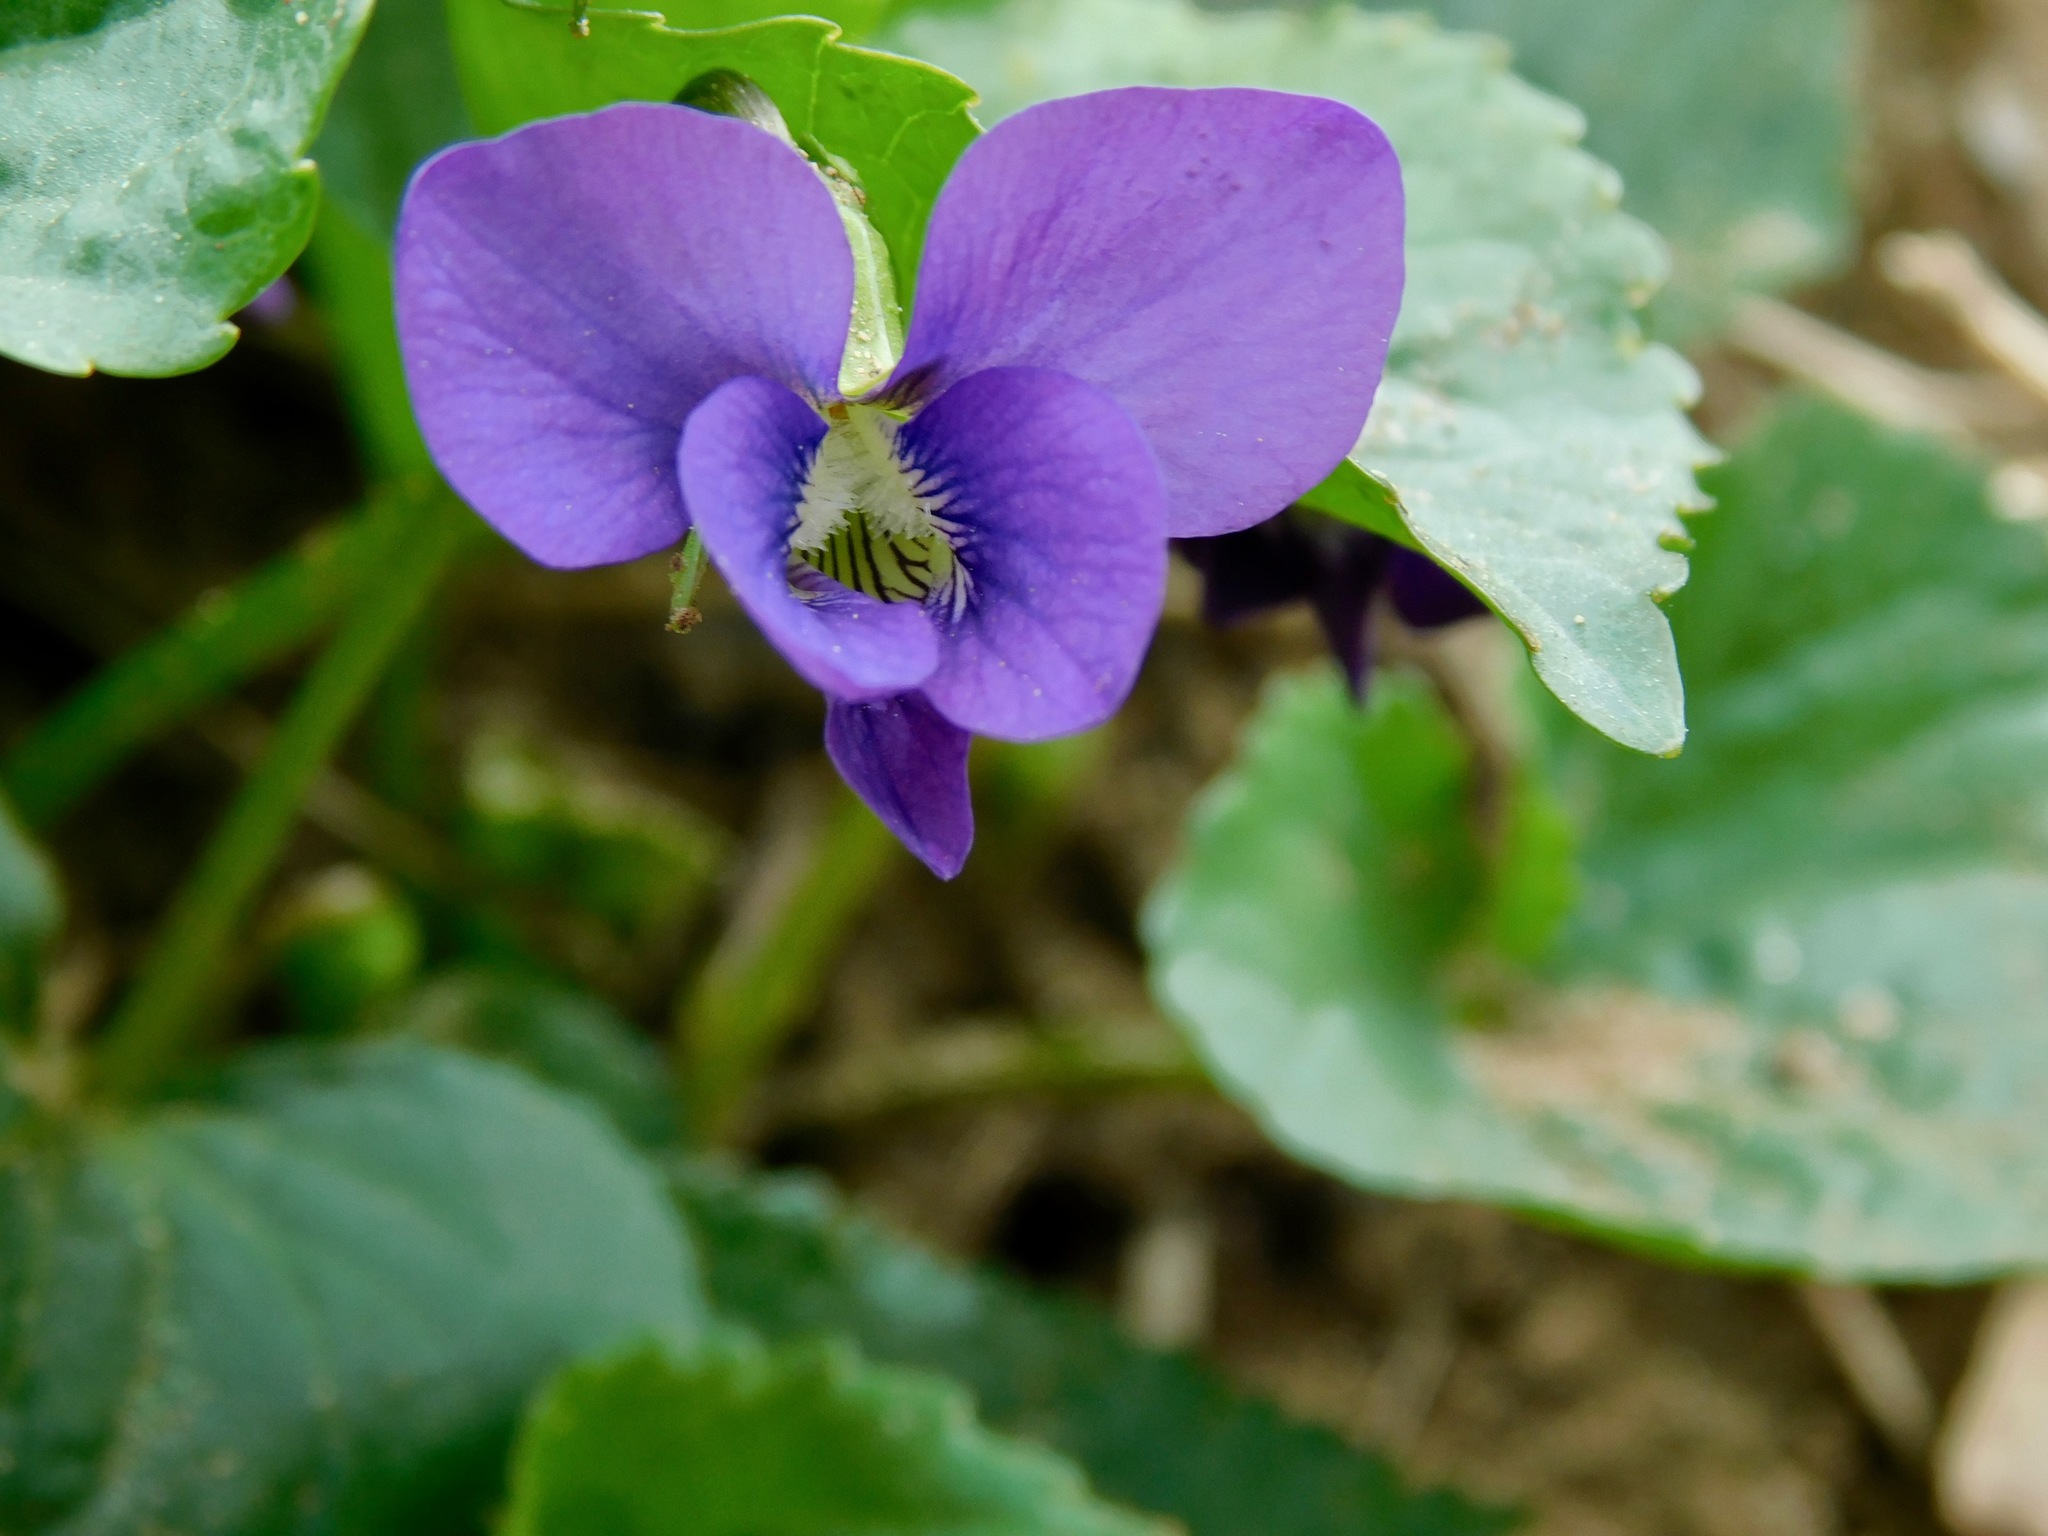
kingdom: Plantae
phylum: Tracheophyta
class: Magnoliopsida
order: Malpighiales
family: Violaceae
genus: Viola
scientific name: Viola sororia
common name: Dooryard violet
